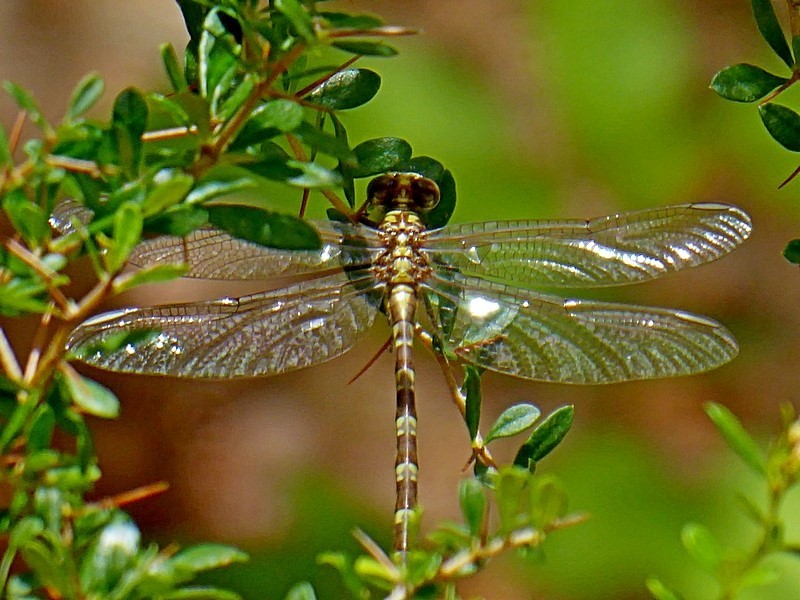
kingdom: Animalia
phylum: Arthropoda
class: Insecta
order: Odonata
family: Gomphidae
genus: Hemigomphus
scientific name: Hemigomphus gouldii
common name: Southern vicetail
